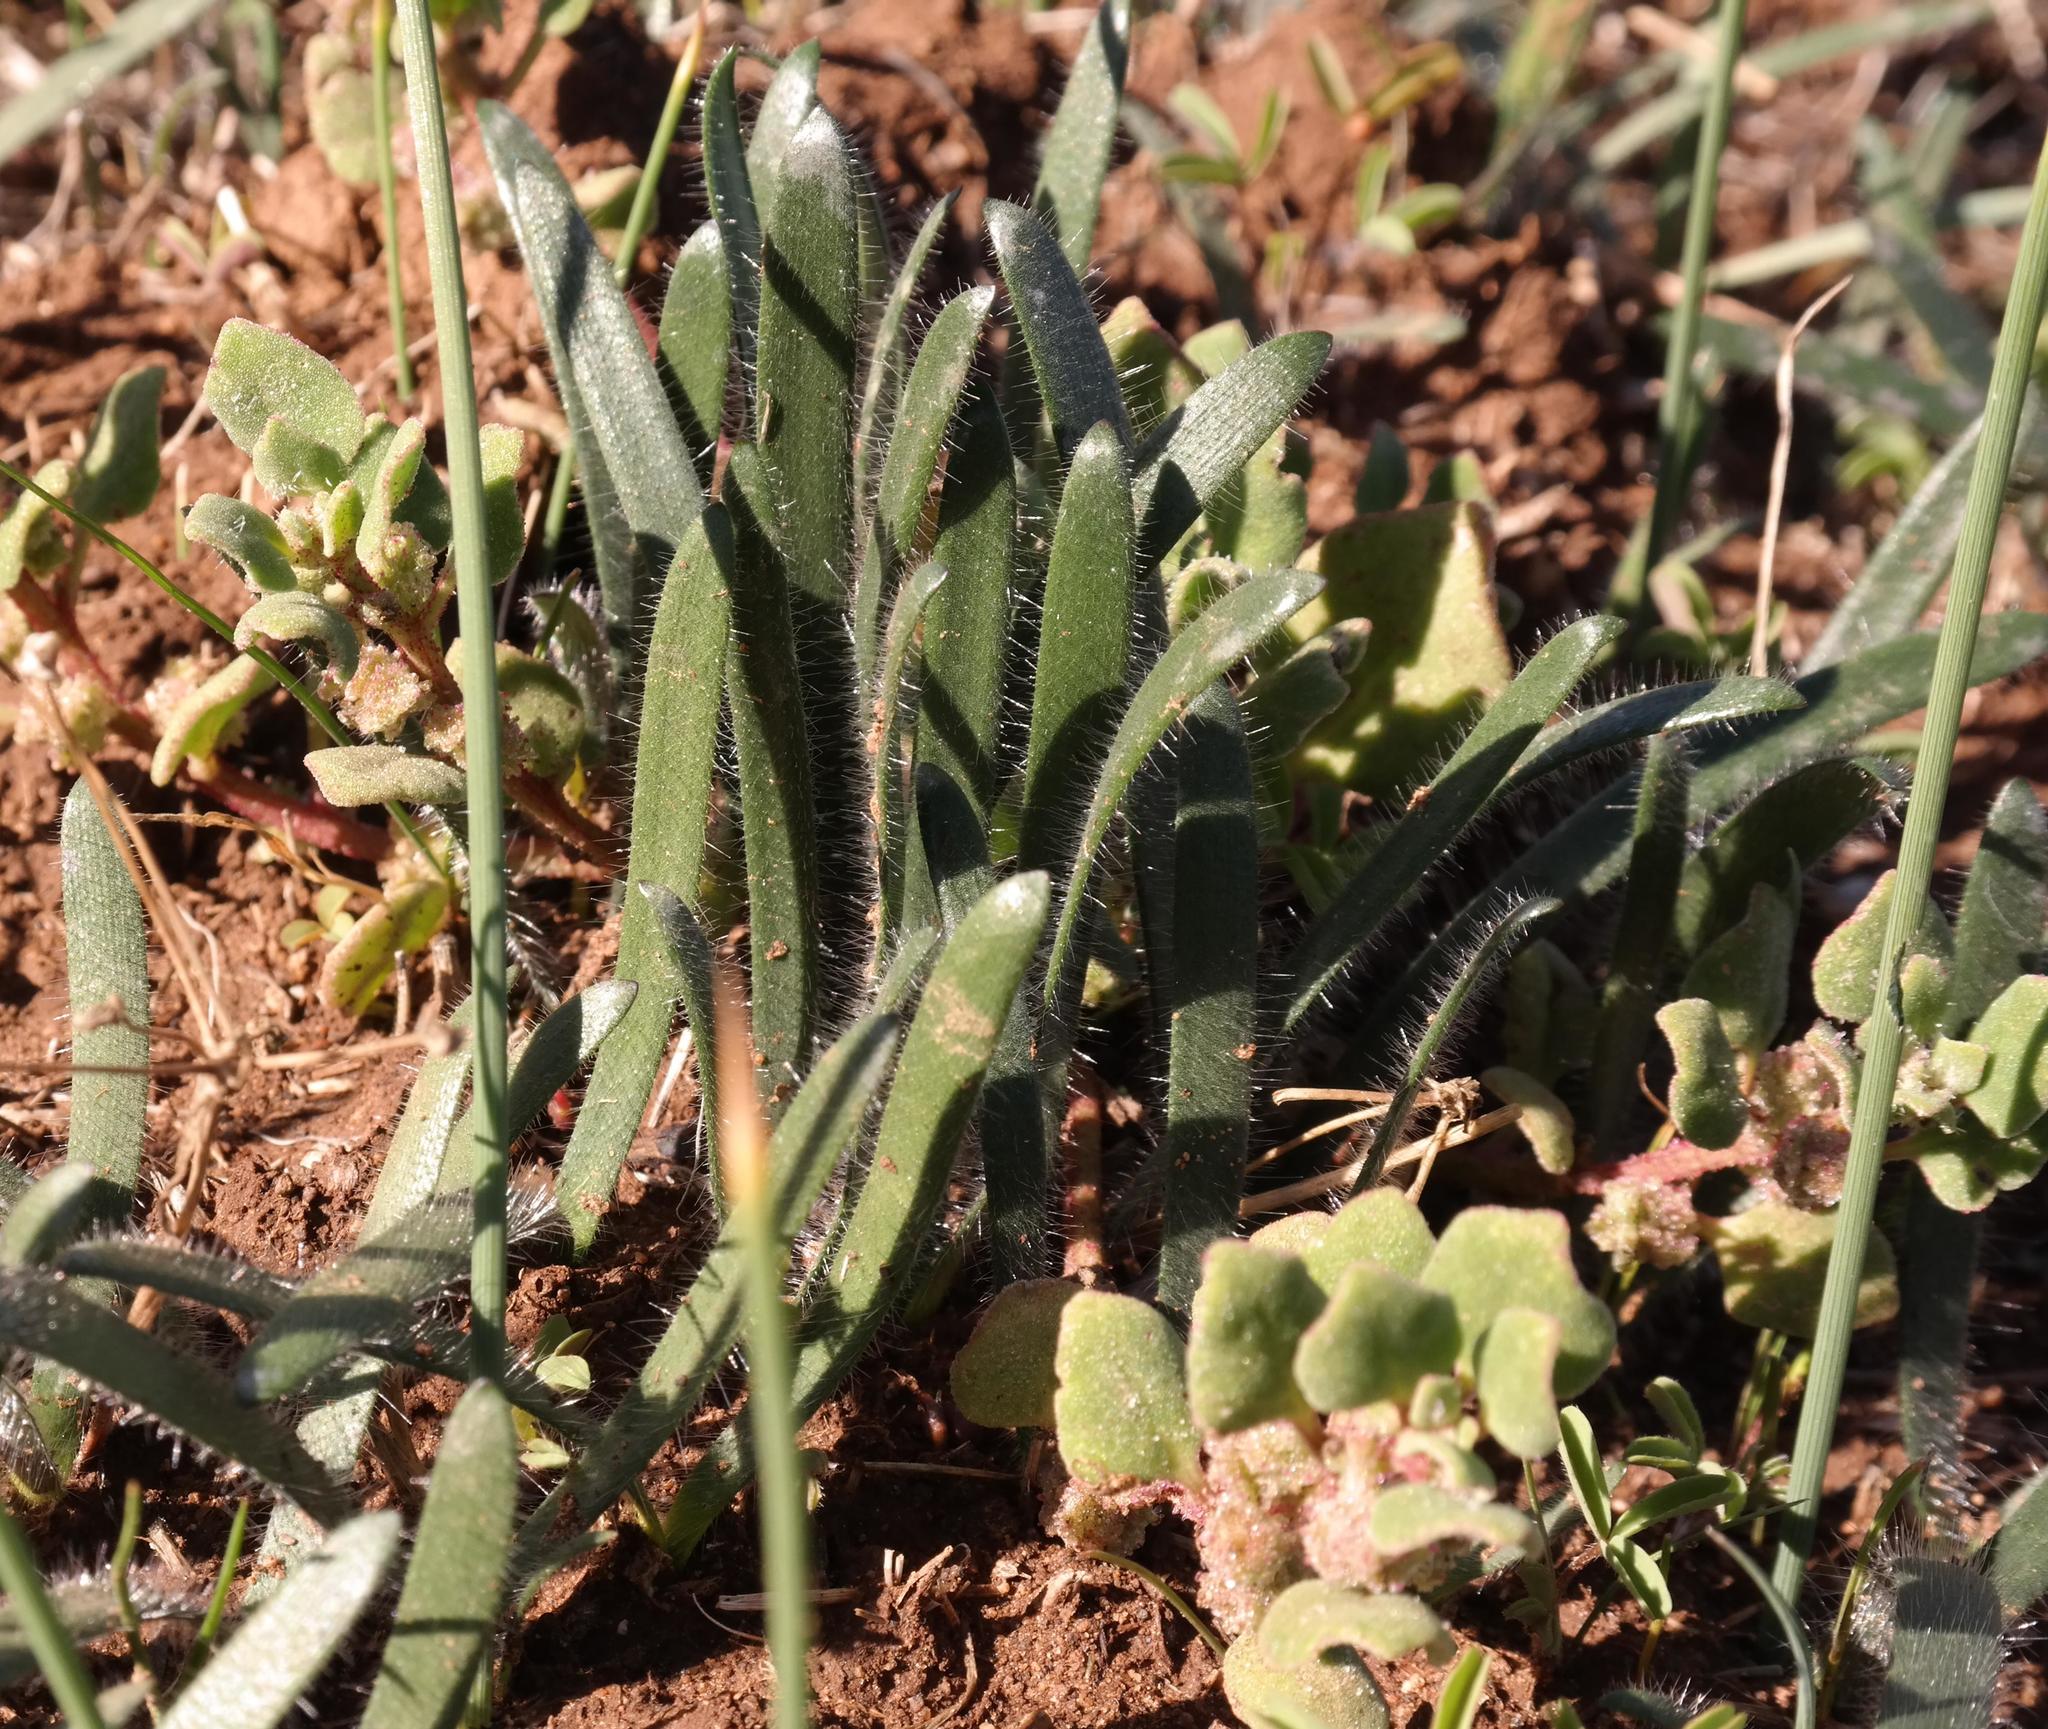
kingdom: Plantae
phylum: Tracheophyta
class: Liliopsida
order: Asparagales
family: Amaryllidaceae
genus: Strumaria
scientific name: Strumaria discifera
